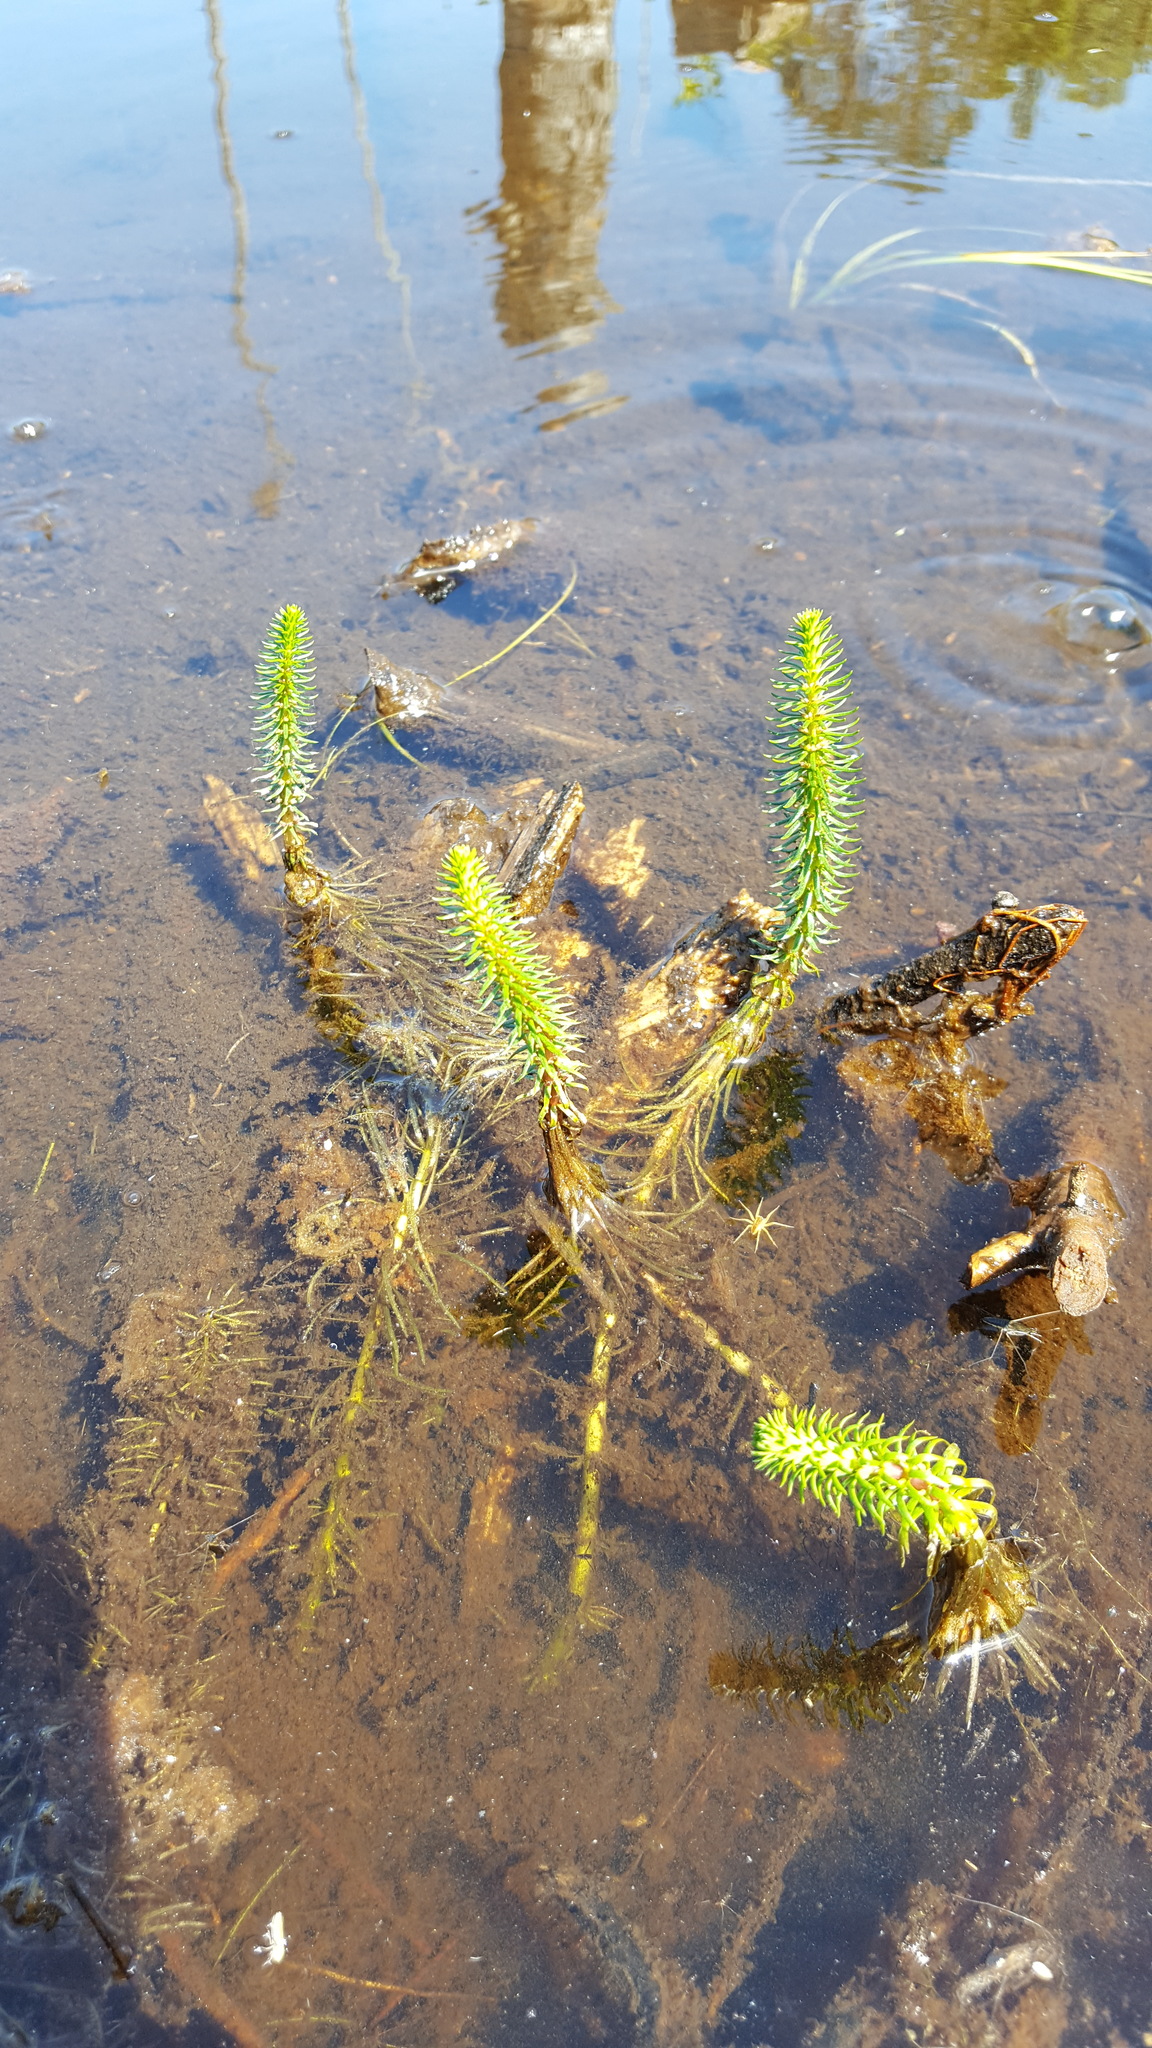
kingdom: Plantae
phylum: Tracheophyta
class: Magnoliopsida
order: Lamiales
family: Plantaginaceae
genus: Hippuris
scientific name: Hippuris vulgaris
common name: Mare's-tail
